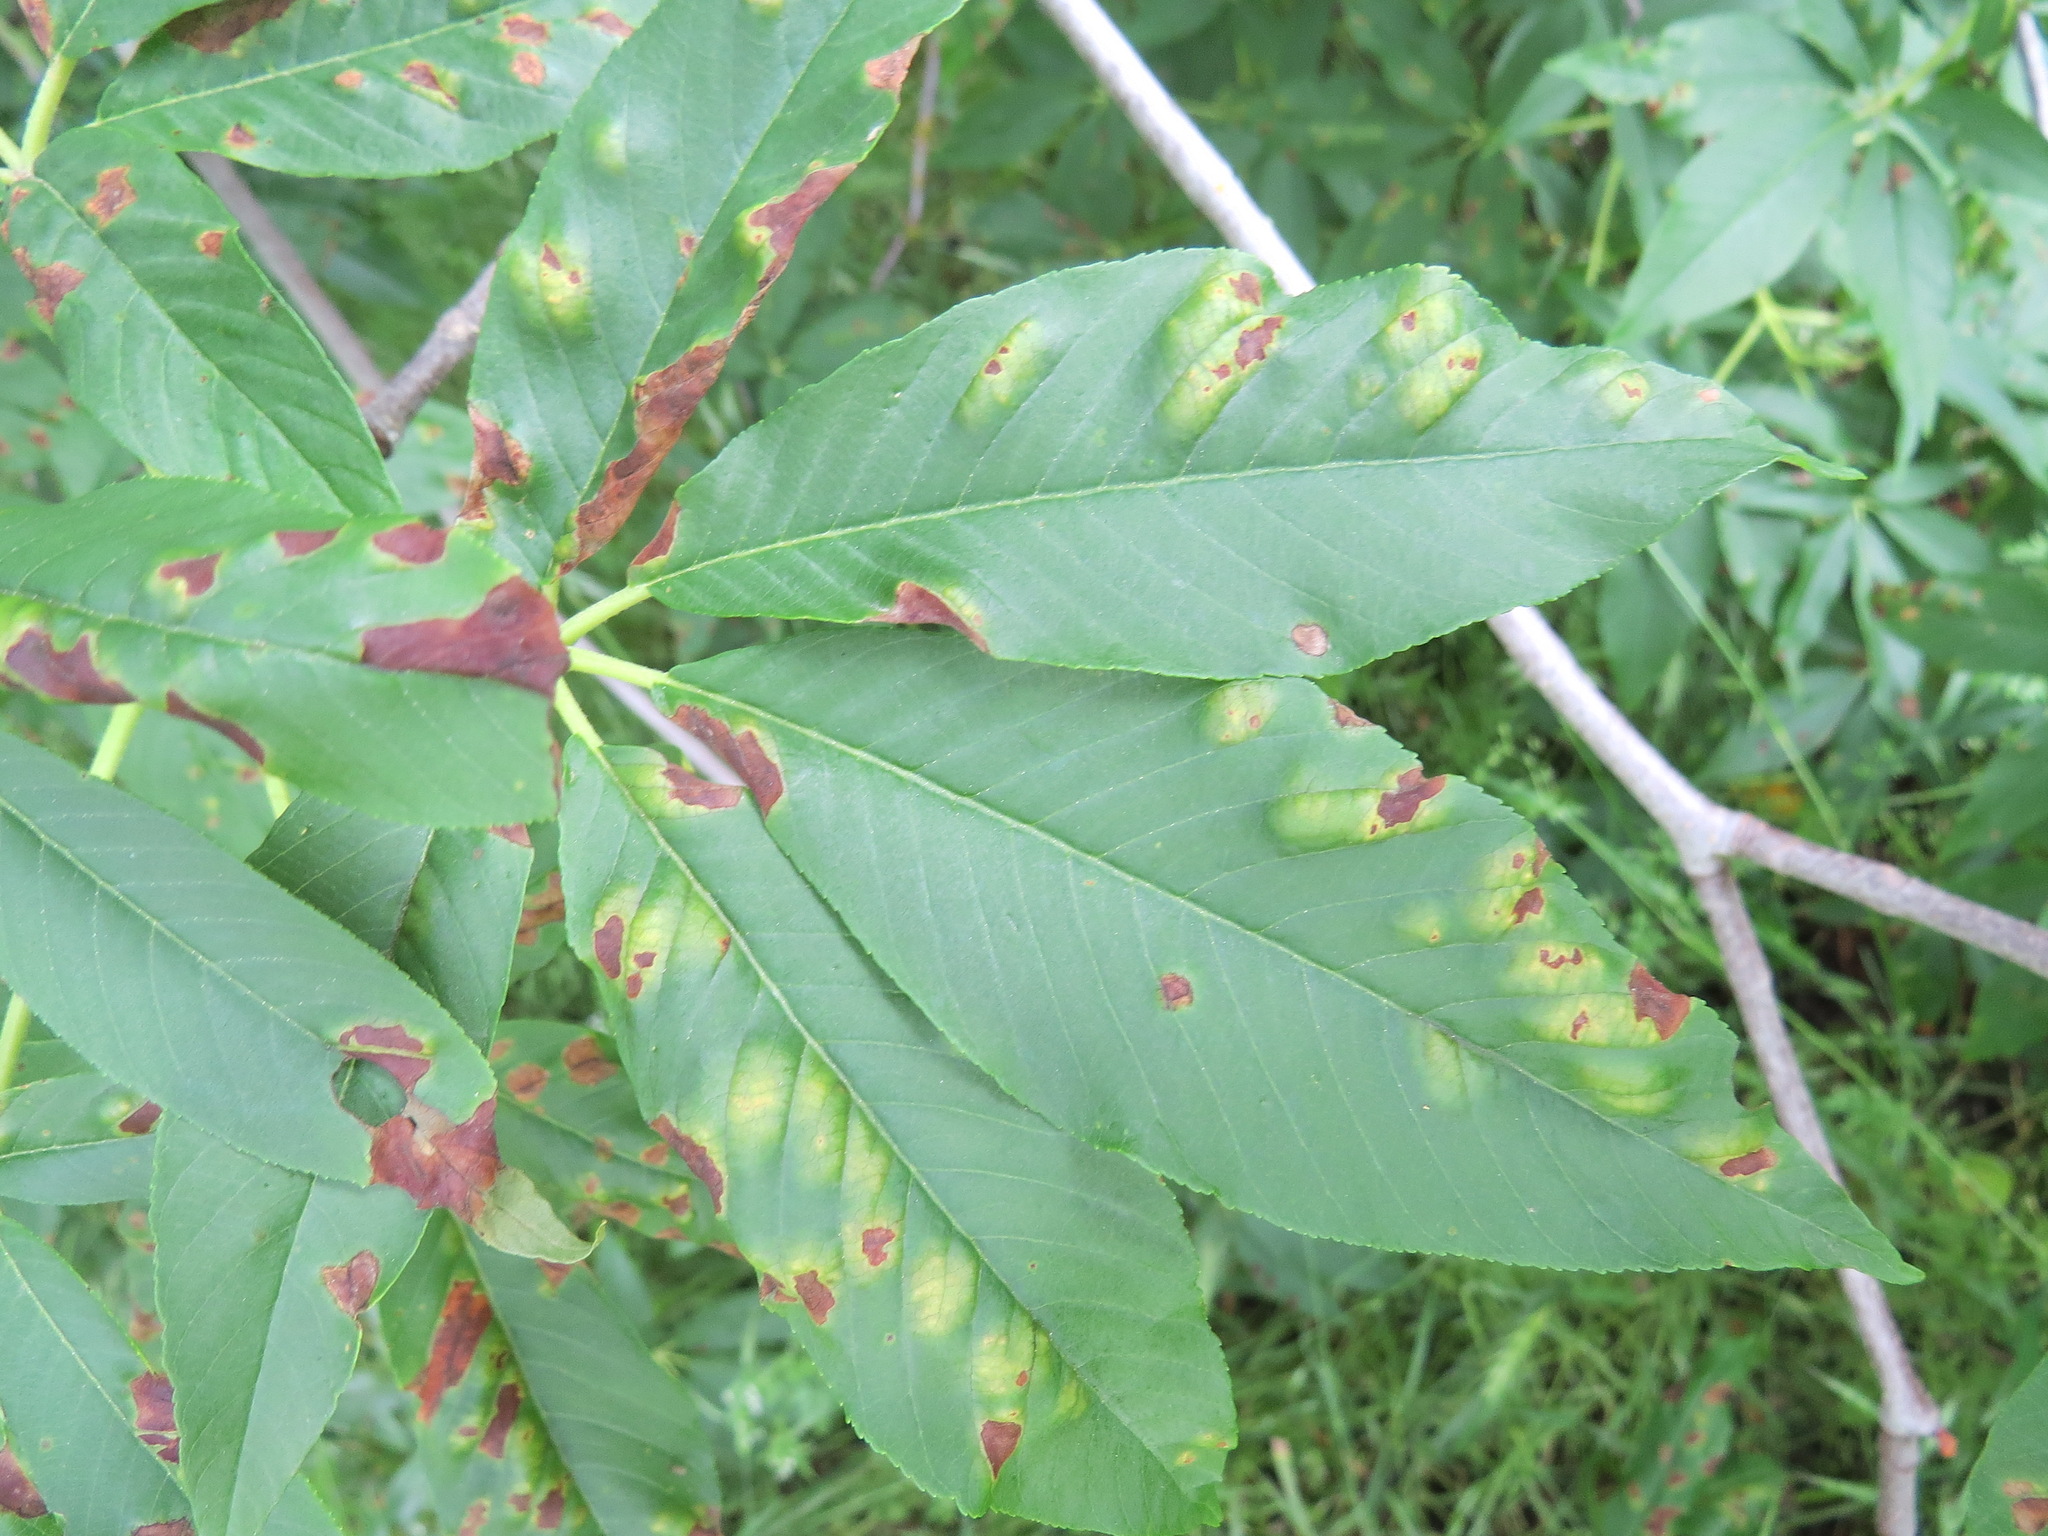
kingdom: Fungi
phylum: Ascomycota
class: Taphrinomycetes
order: Taphrinales
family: Taphrinaceae
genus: Taphrina
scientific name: Taphrina aesculi
